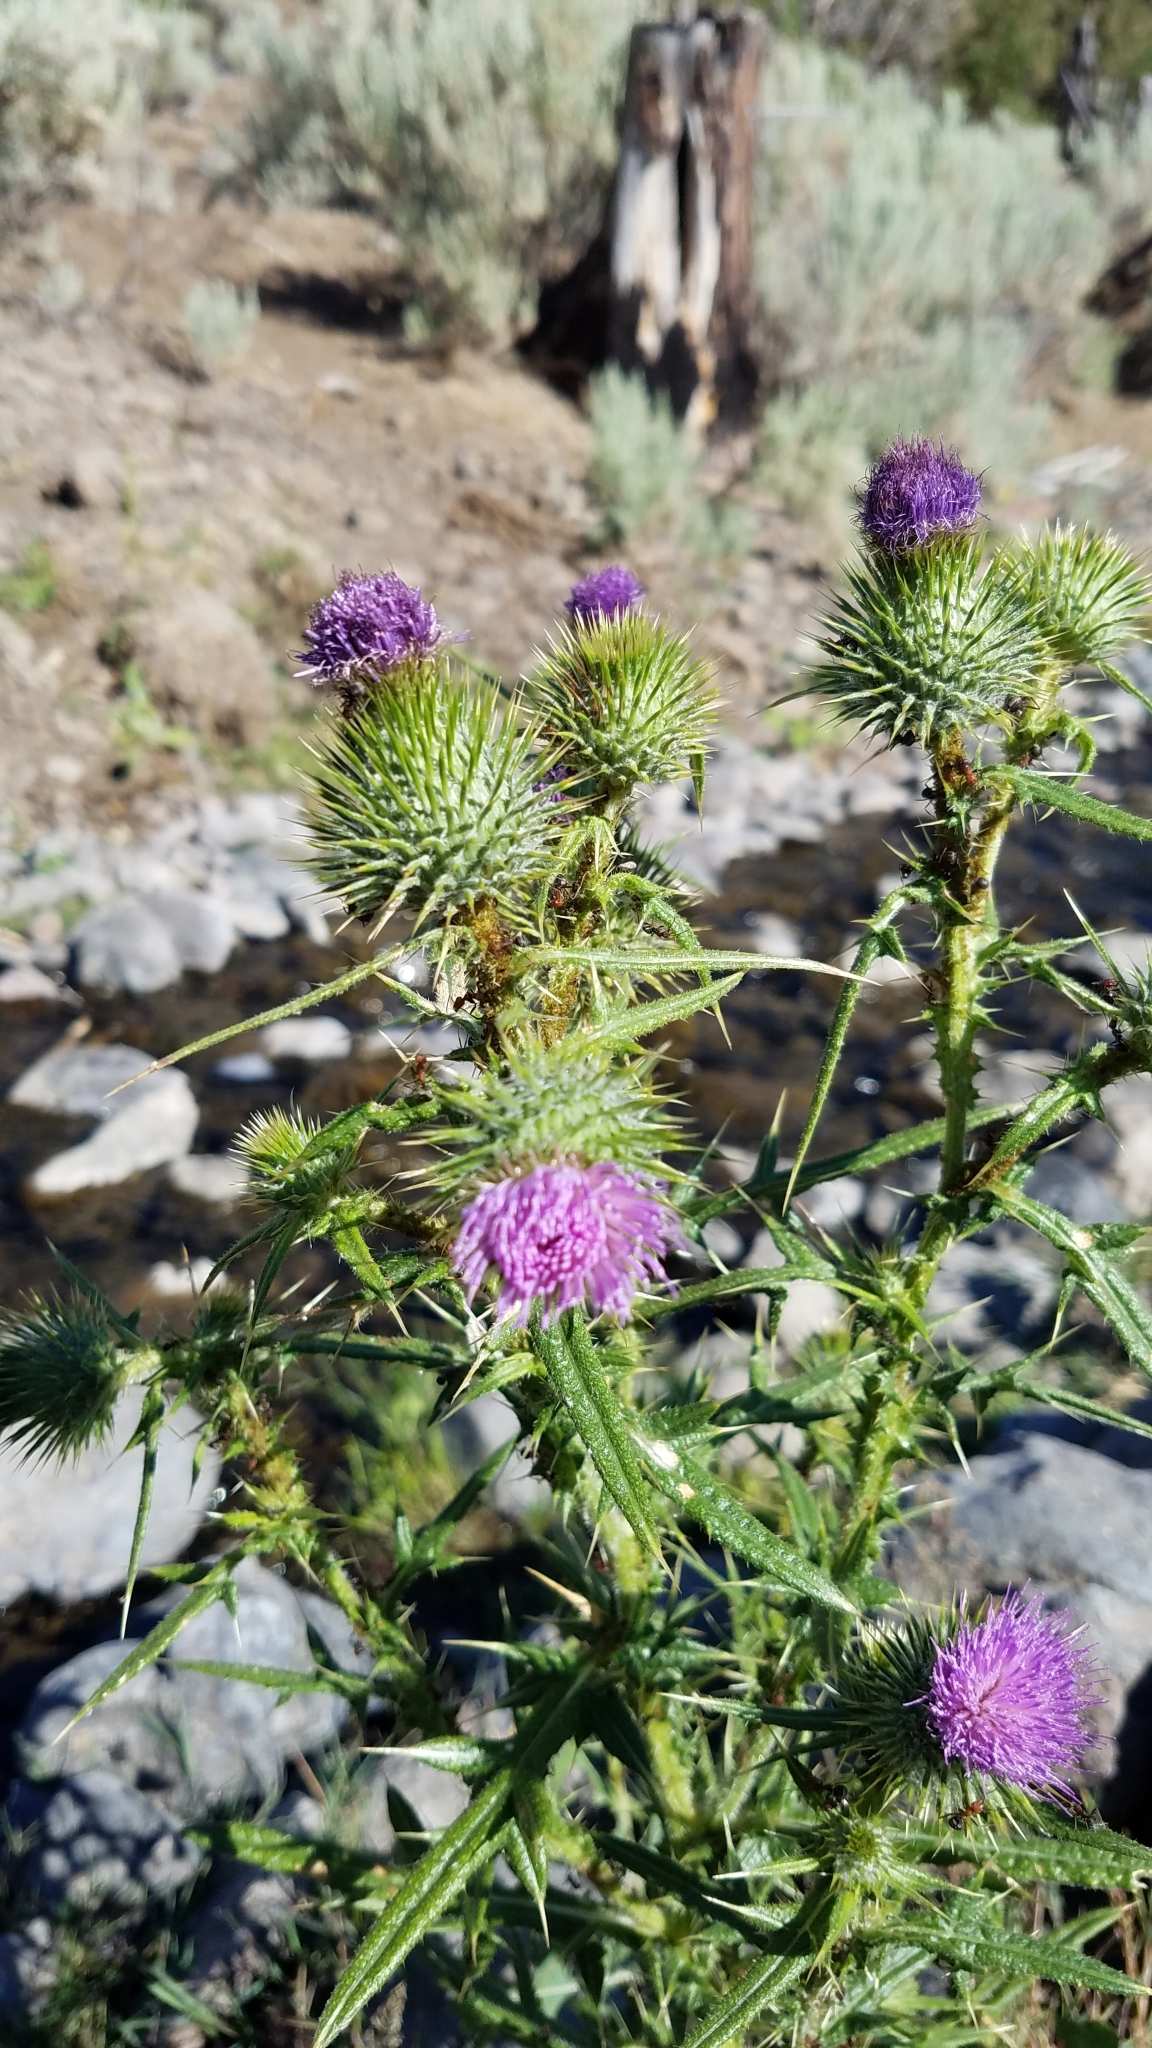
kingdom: Plantae
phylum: Tracheophyta
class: Magnoliopsida
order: Asterales
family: Asteraceae
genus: Cirsium
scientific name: Cirsium vulgare
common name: Bull thistle
